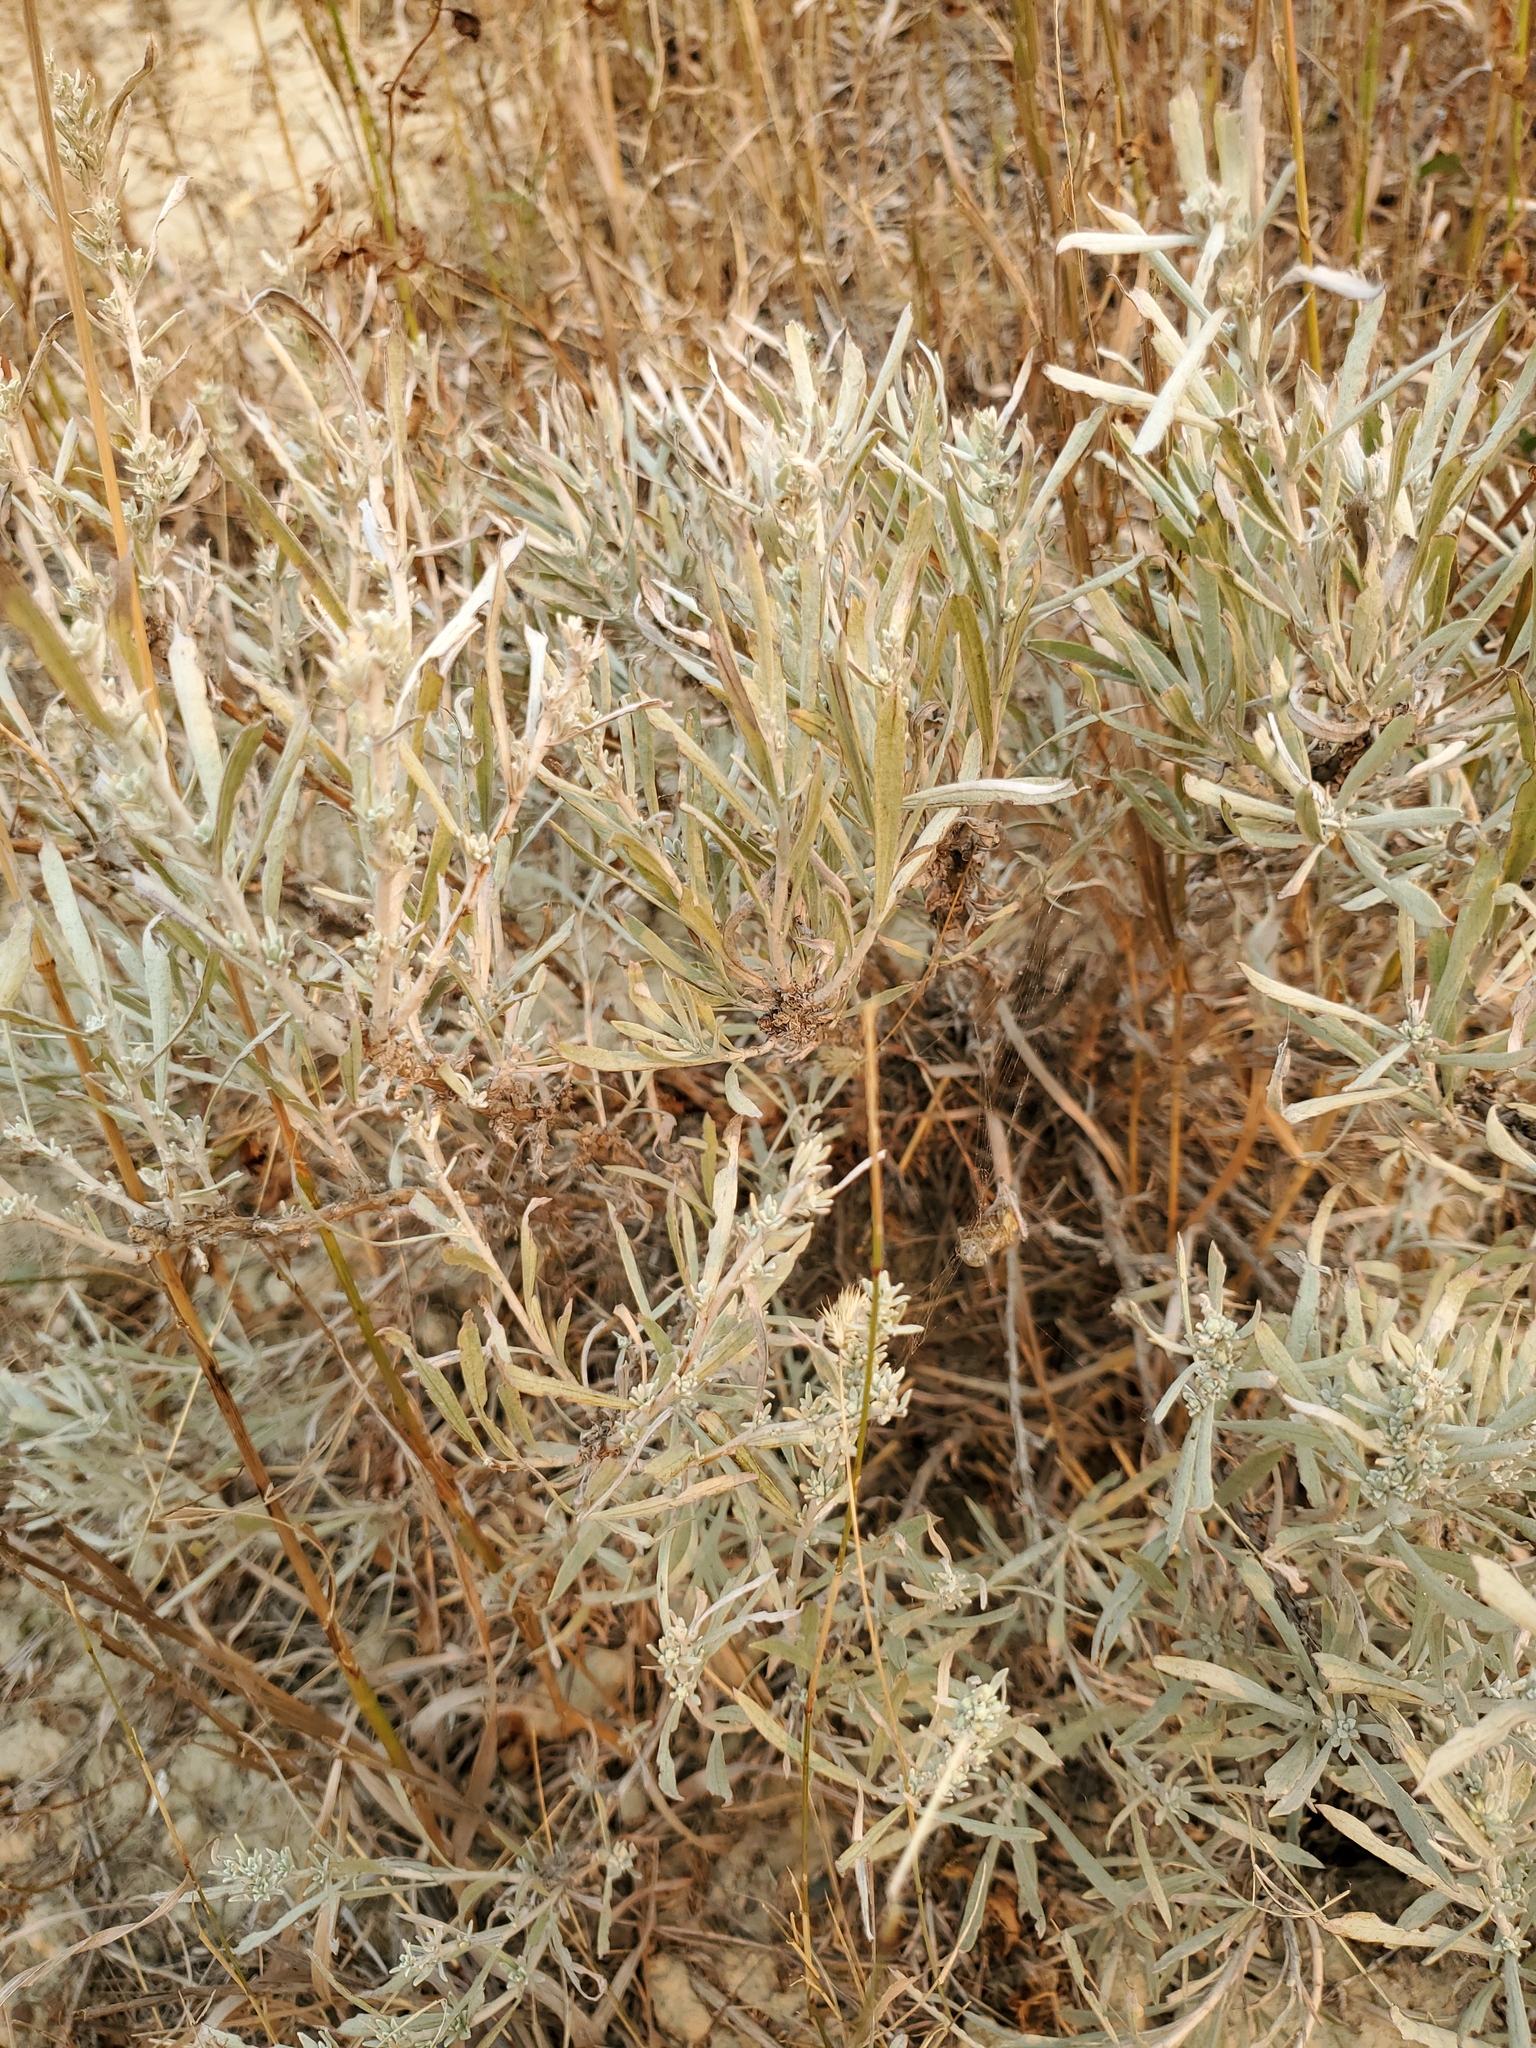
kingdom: Plantae
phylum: Tracheophyta
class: Magnoliopsida
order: Asterales
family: Asteraceae
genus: Artemisia
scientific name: Artemisia cana
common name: Silver sagebrush
